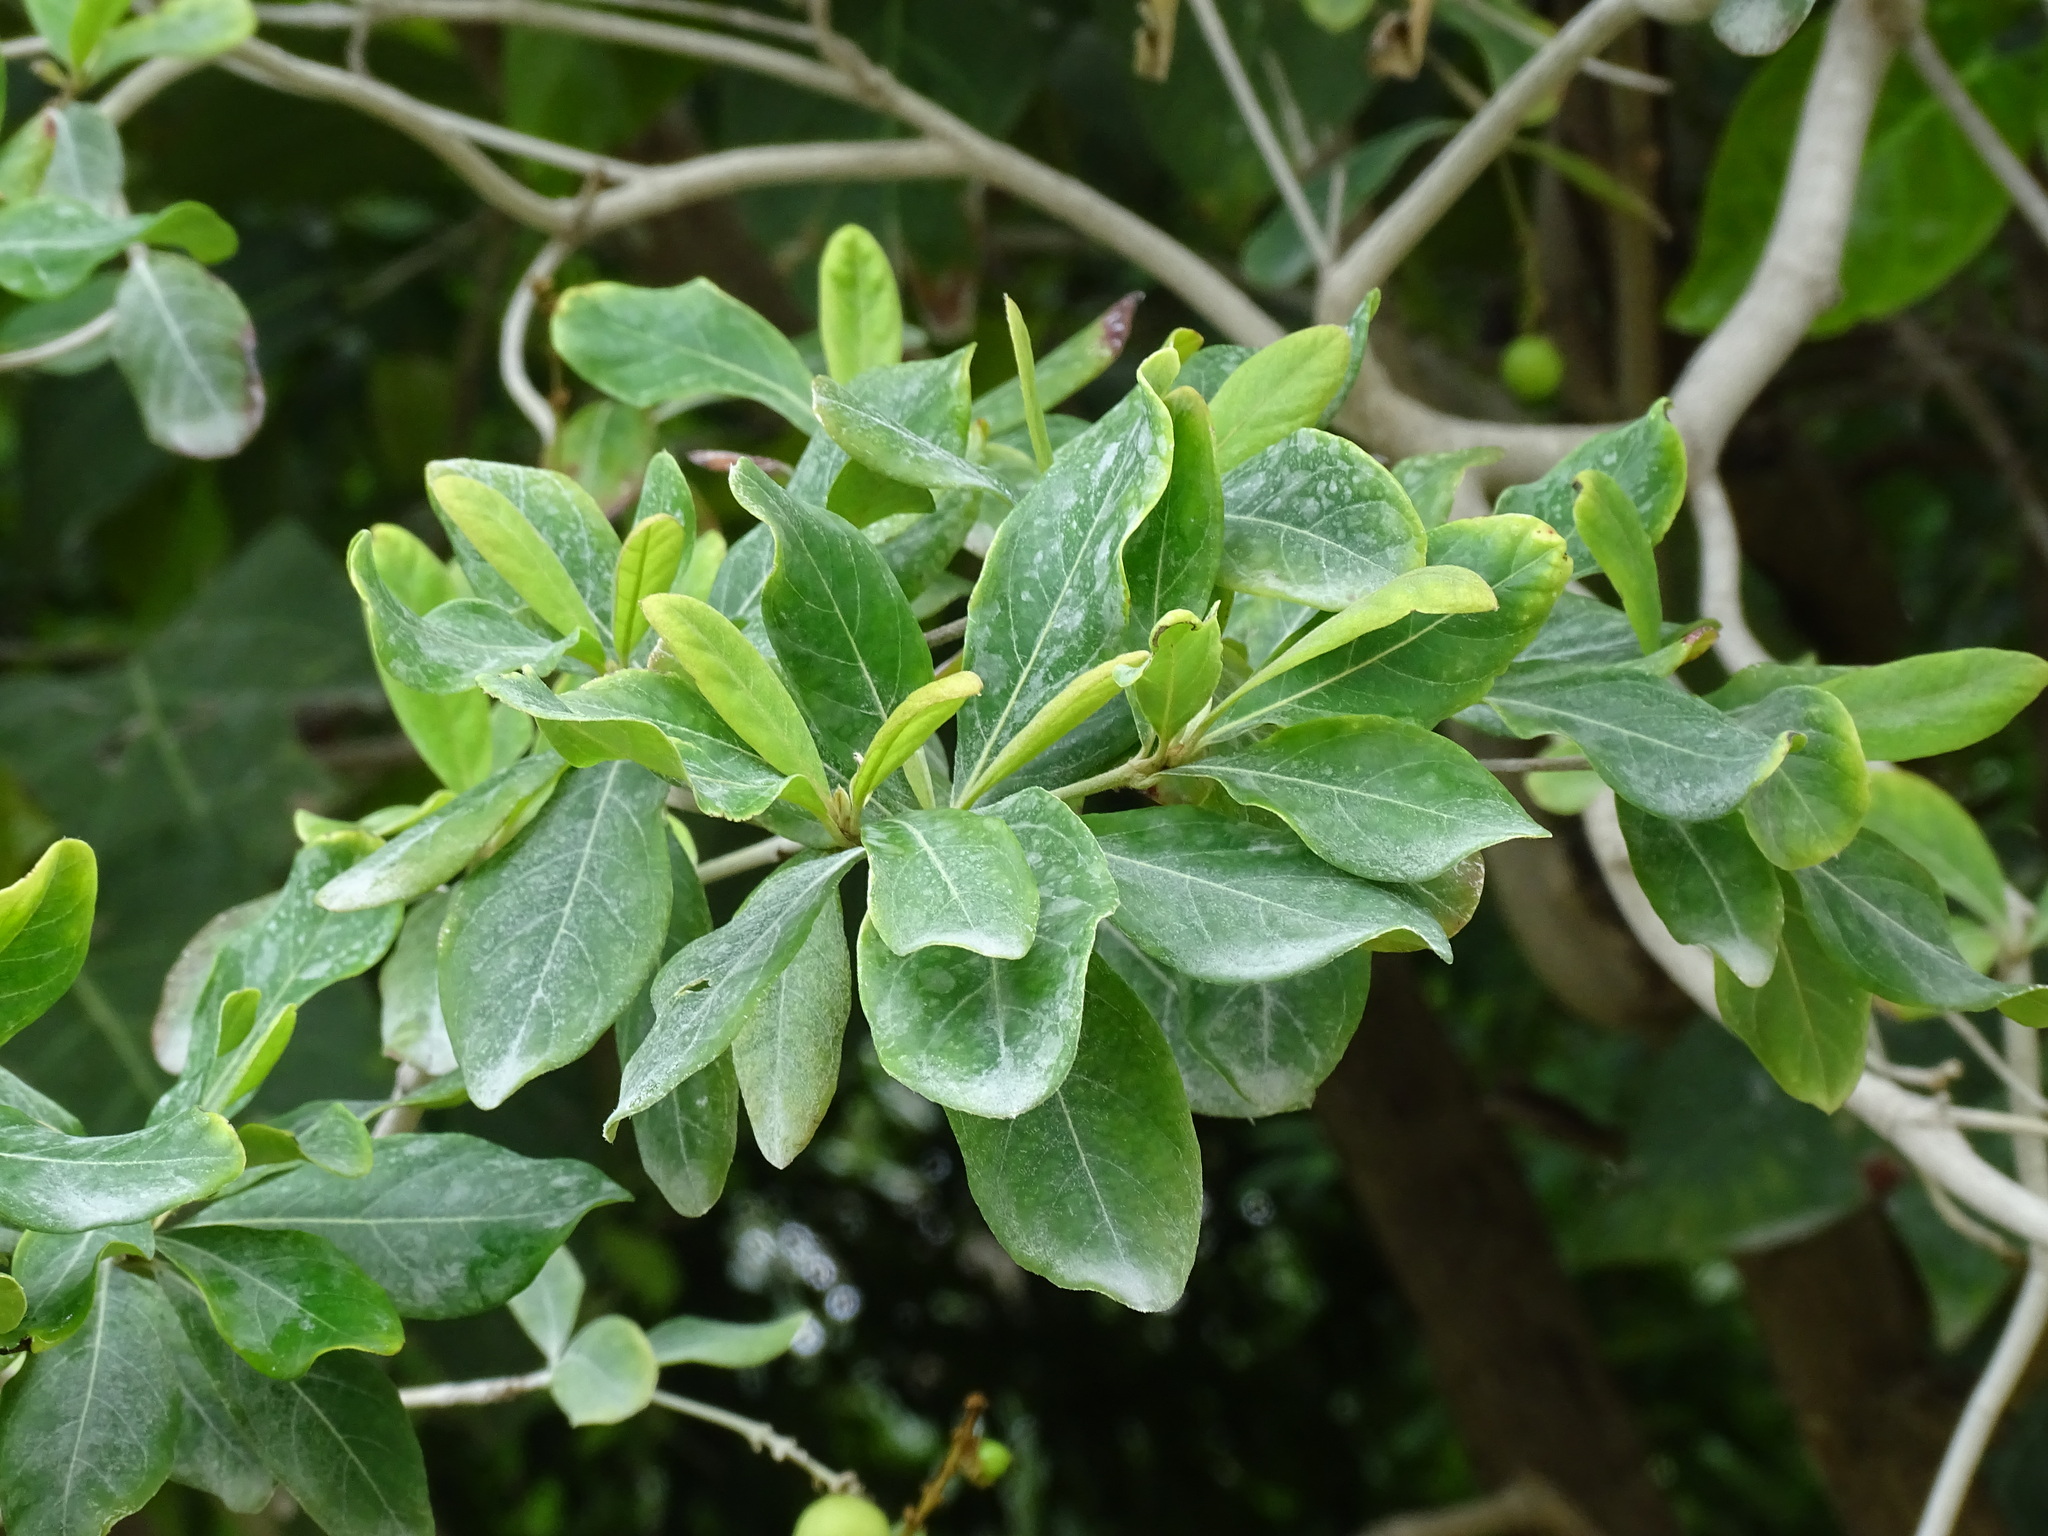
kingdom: Plantae
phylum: Tracheophyta
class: Magnoliopsida
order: Malpighiales
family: Malpighiaceae
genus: Byrsonima
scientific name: Byrsonima roigii
